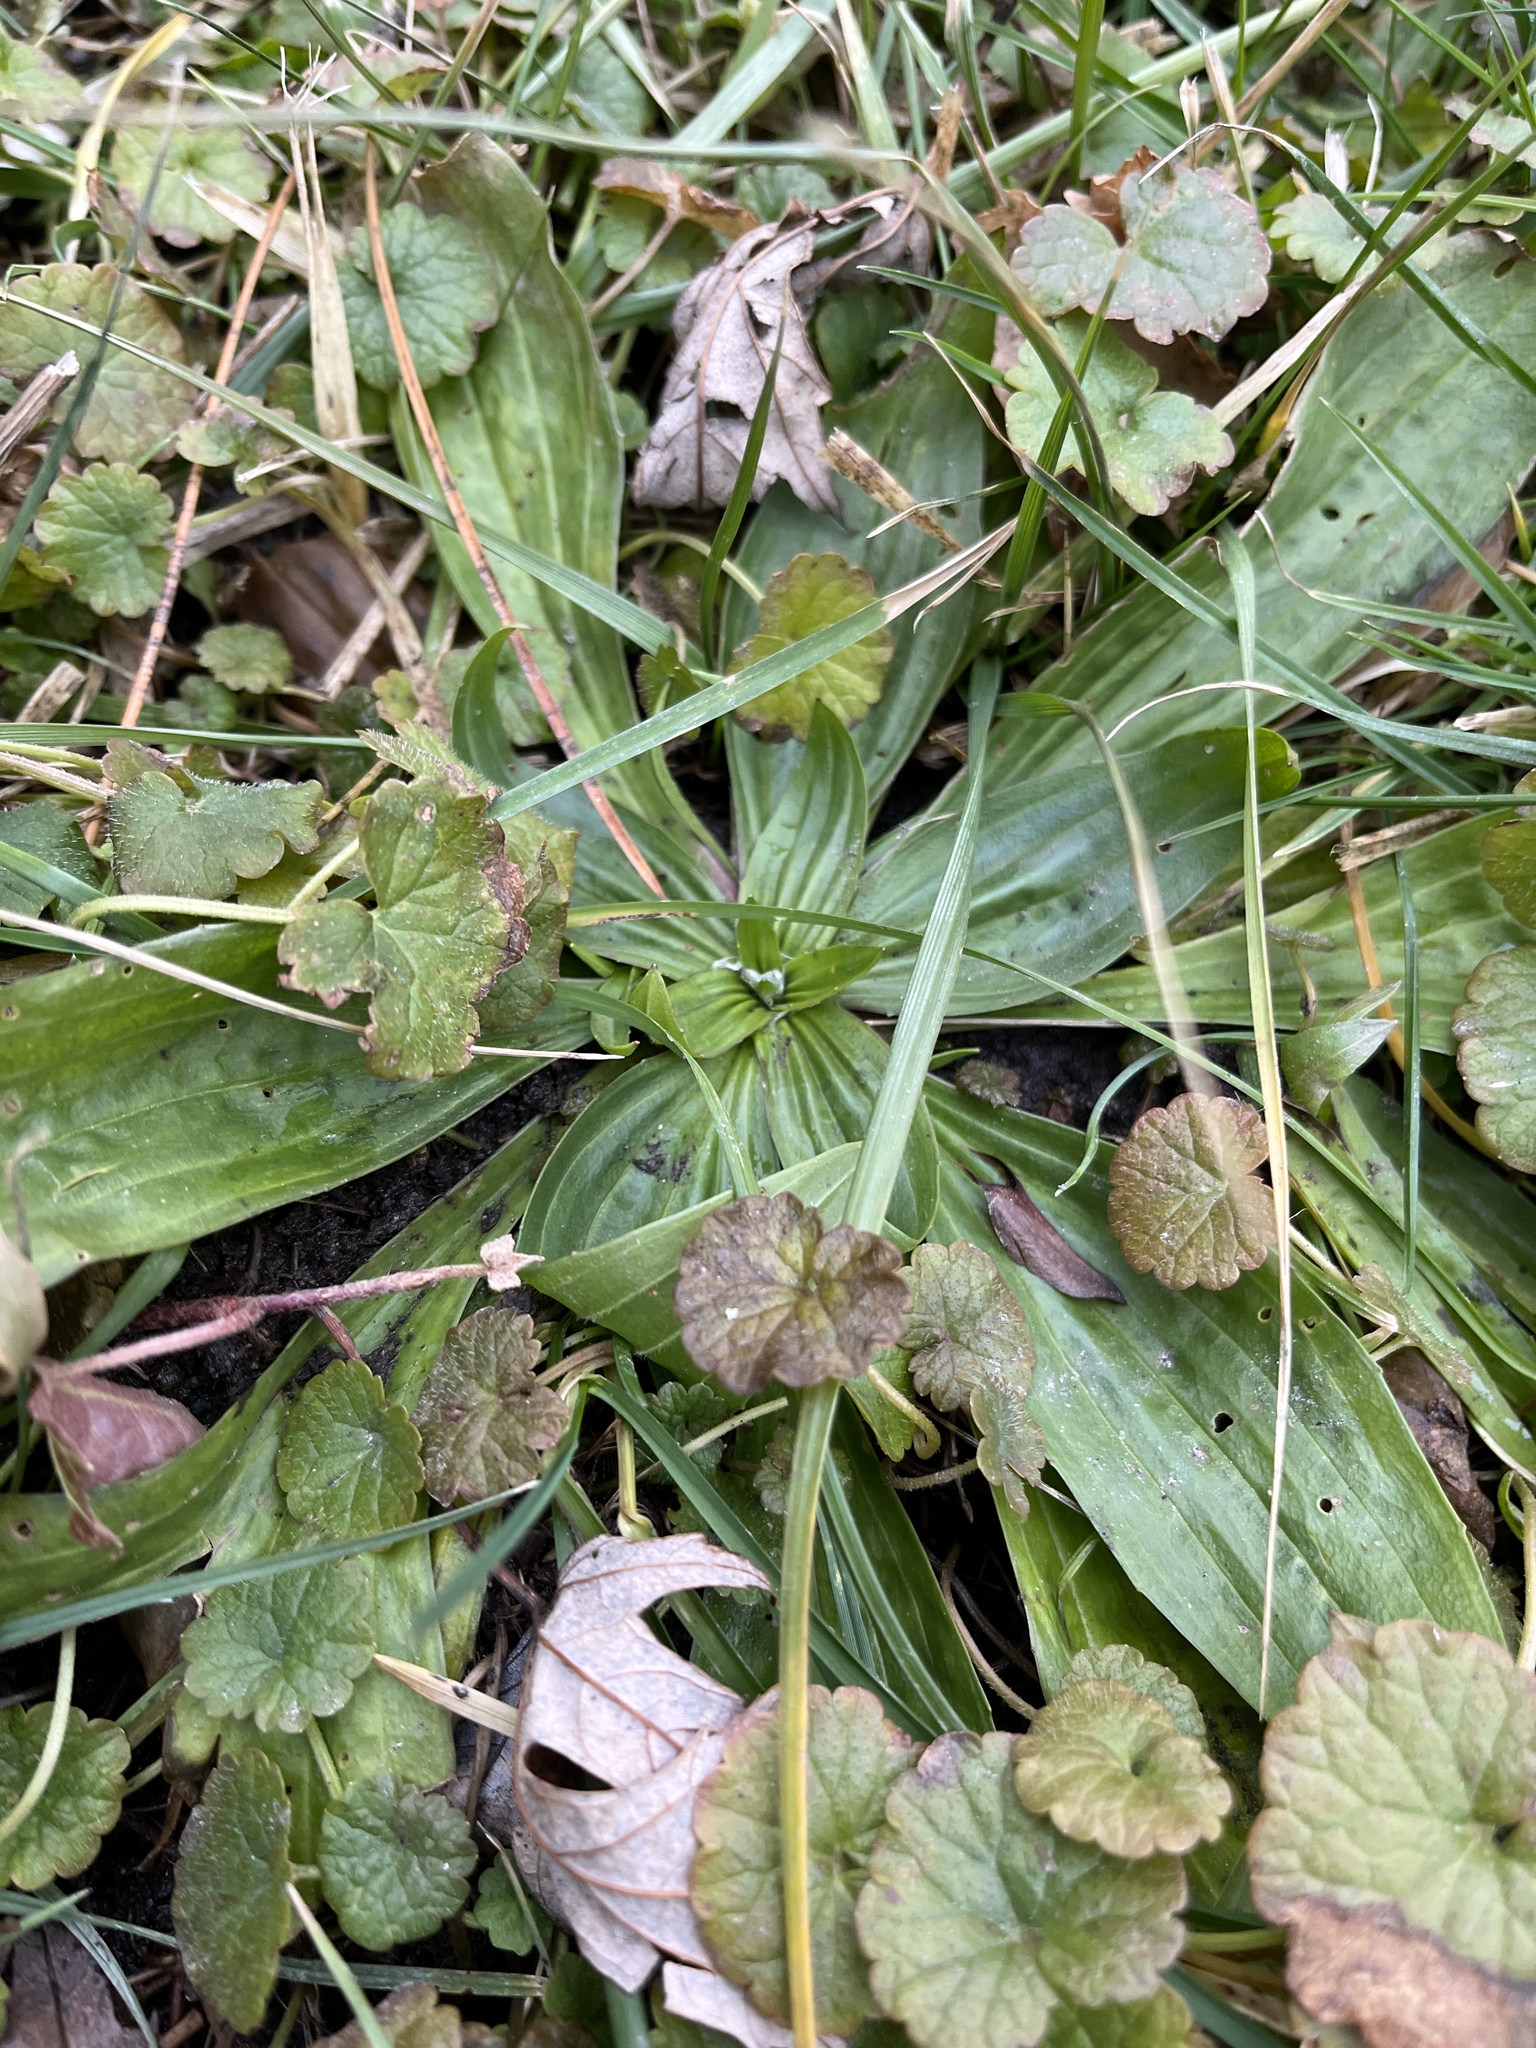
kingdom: Plantae
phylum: Tracheophyta
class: Magnoliopsida
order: Lamiales
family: Plantaginaceae
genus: Plantago
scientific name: Plantago lanceolata
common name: Ribwort plantain
